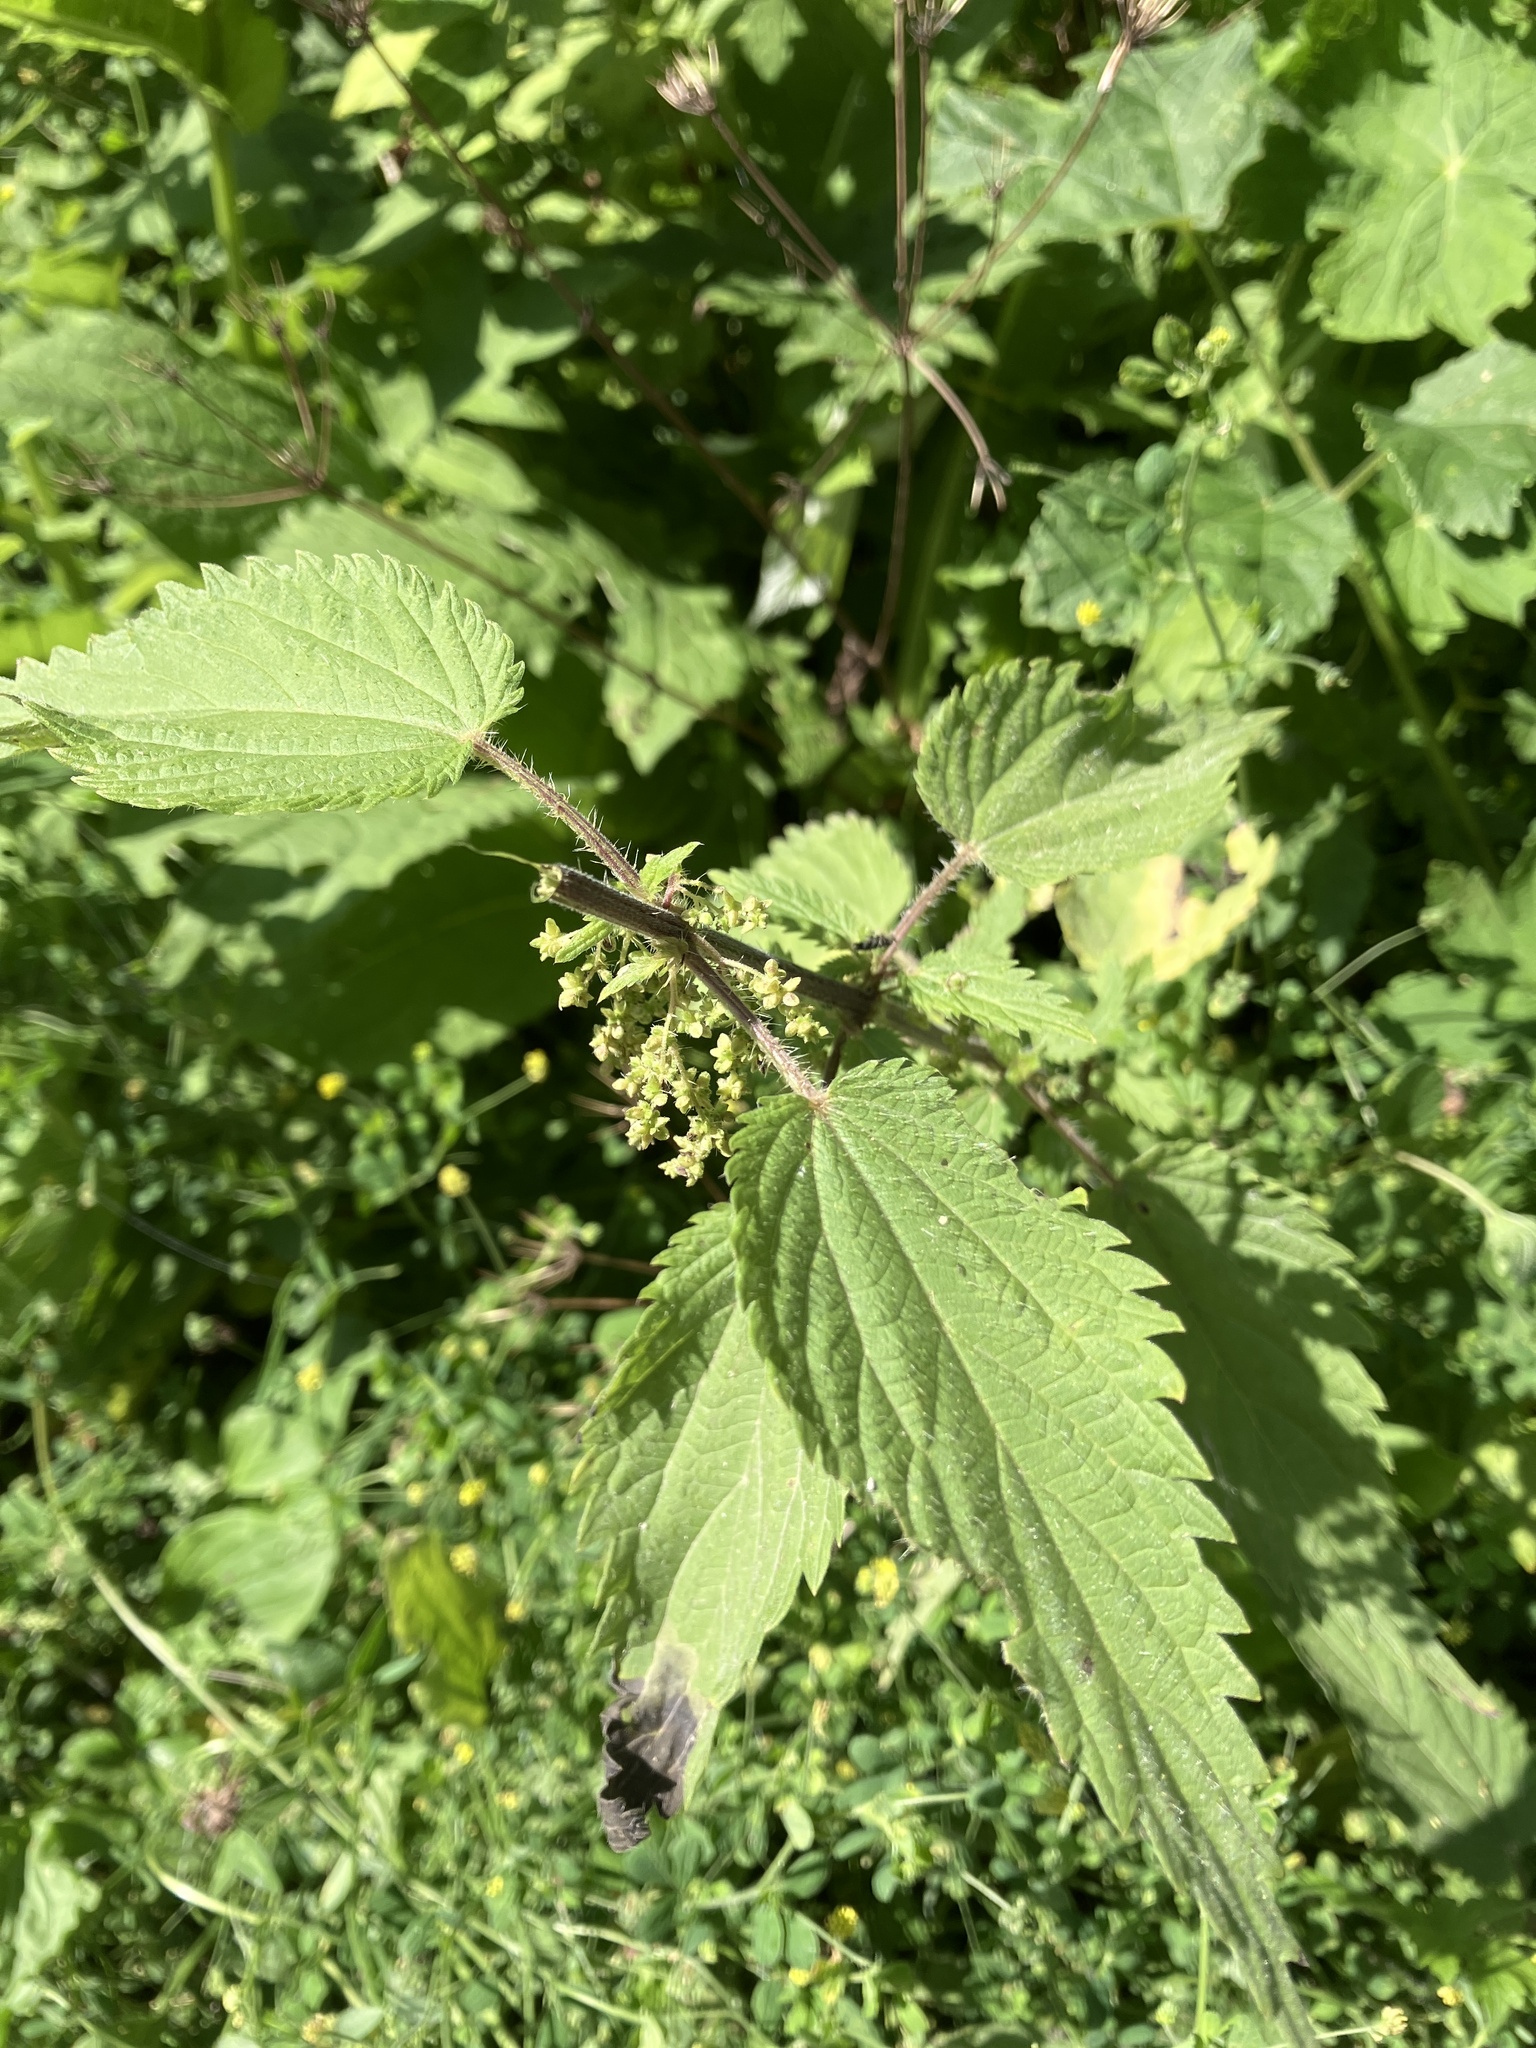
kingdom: Plantae
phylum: Tracheophyta
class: Magnoliopsida
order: Rosales
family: Urticaceae
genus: Urtica
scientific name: Urtica dioica
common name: Common nettle
